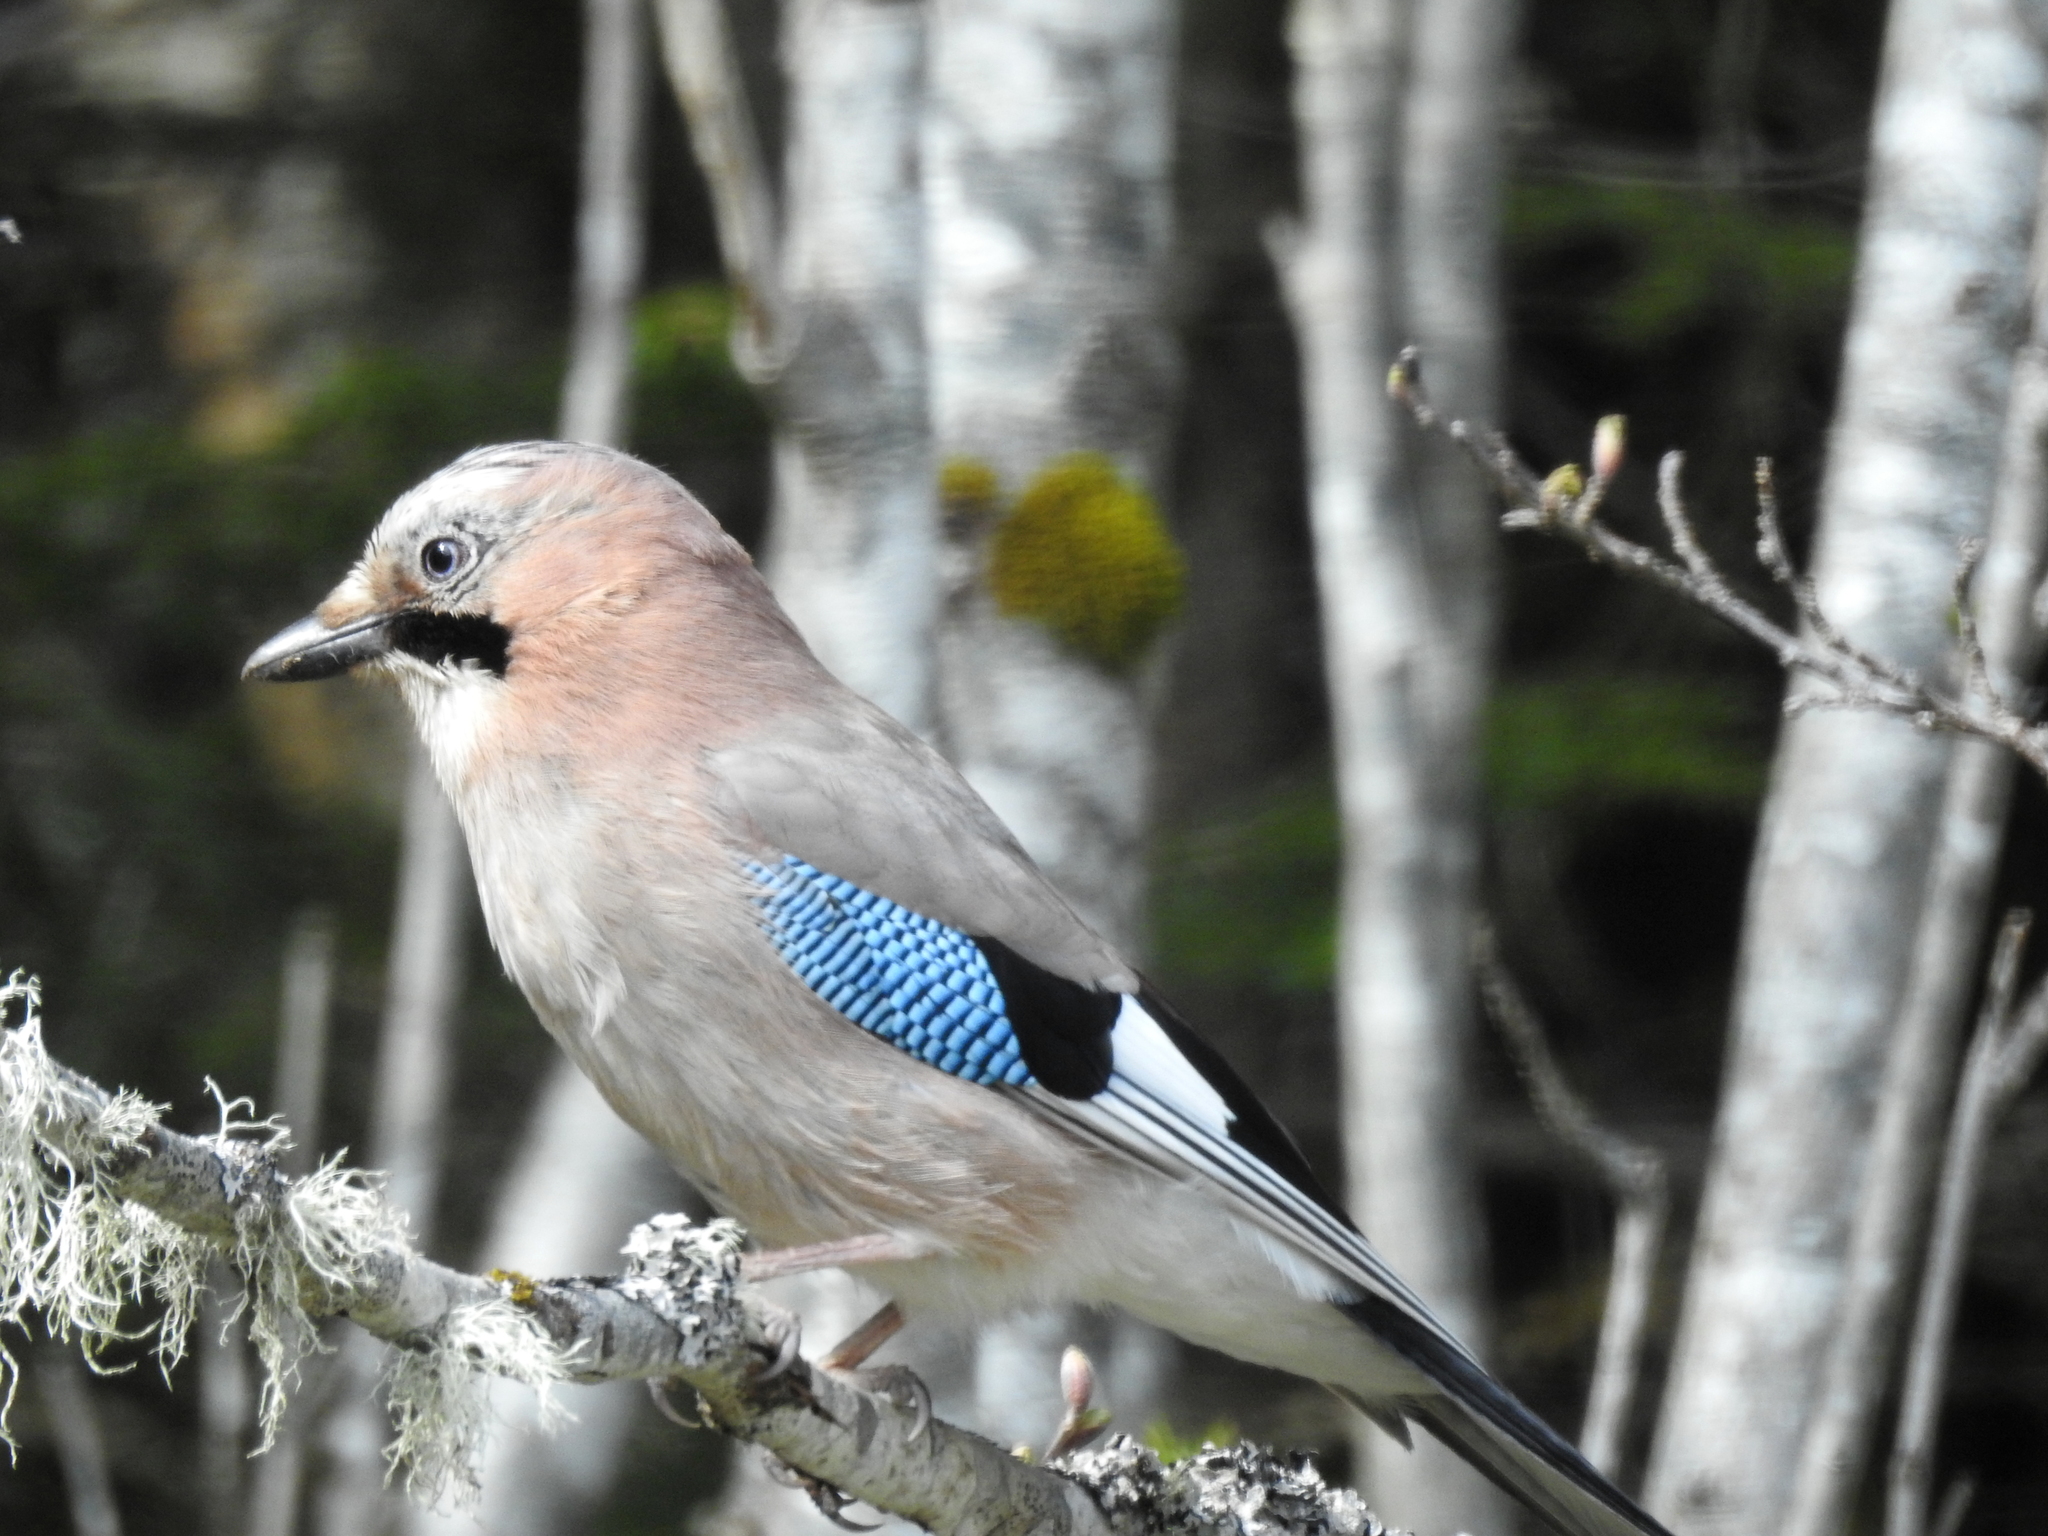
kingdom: Animalia
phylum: Chordata
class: Aves
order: Passeriformes
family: Corvidae
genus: Garrulus
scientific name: Garrulus glandarius
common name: Eurasian jay
